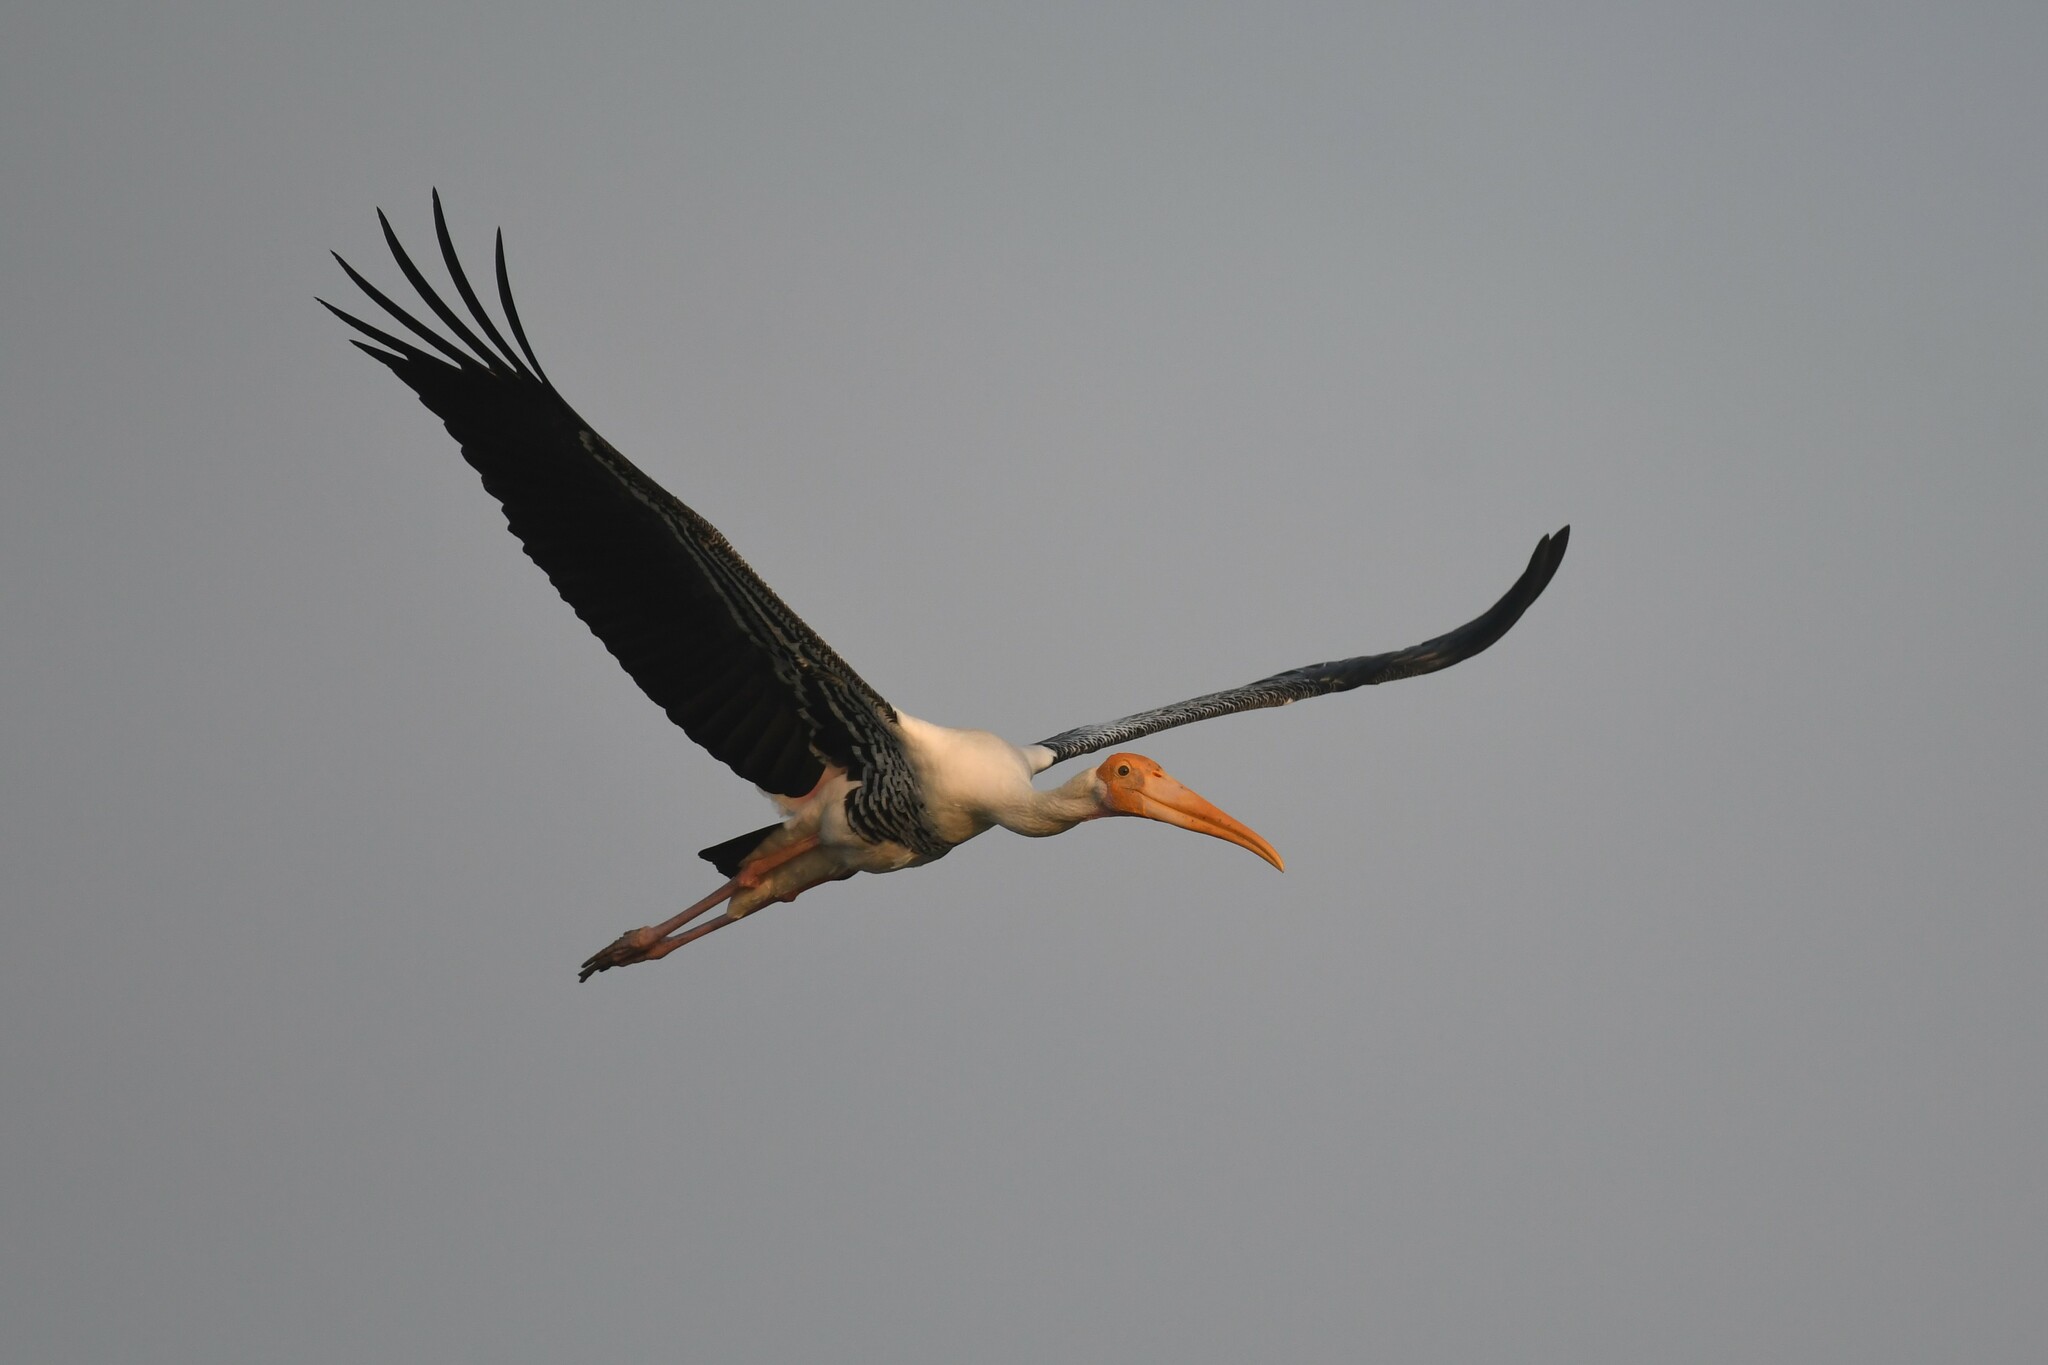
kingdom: Animalia
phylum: Chordata
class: Aves
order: Ciconiiformes
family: Ciconiidae
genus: Mycteria
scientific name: Mycteria leucocephala
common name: Painted stork
